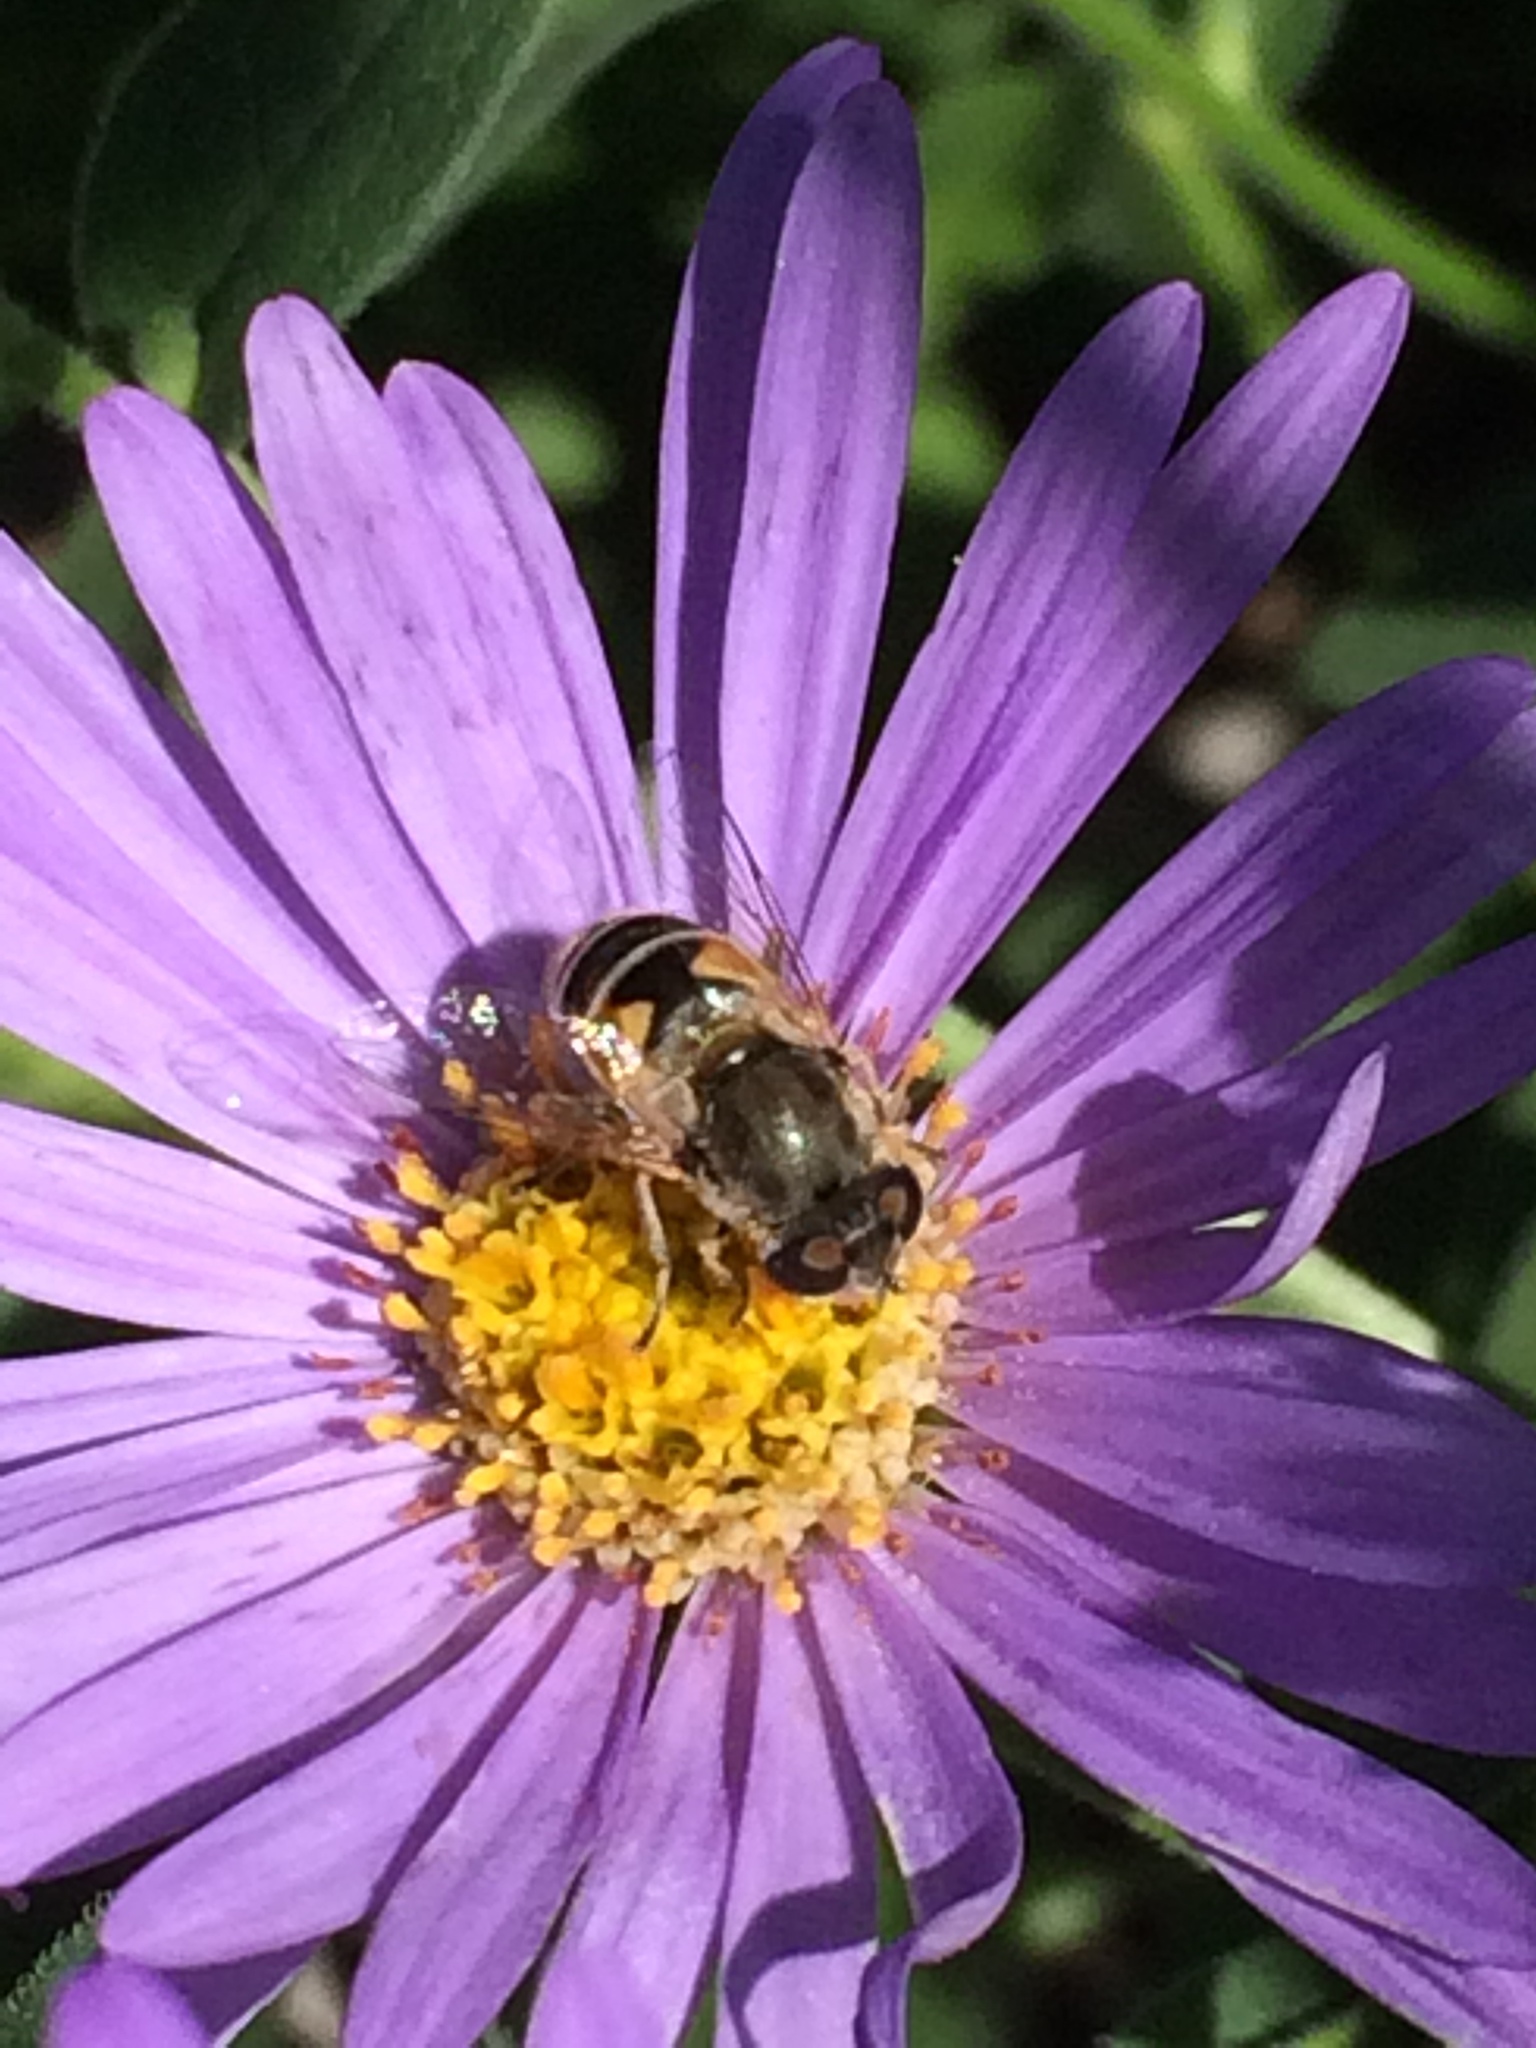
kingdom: Animalia
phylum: Arthropoda
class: Insecta
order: Diptera
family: Syrphidae
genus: Eristalis
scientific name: Eristalis arbustorum
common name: Hover fly
